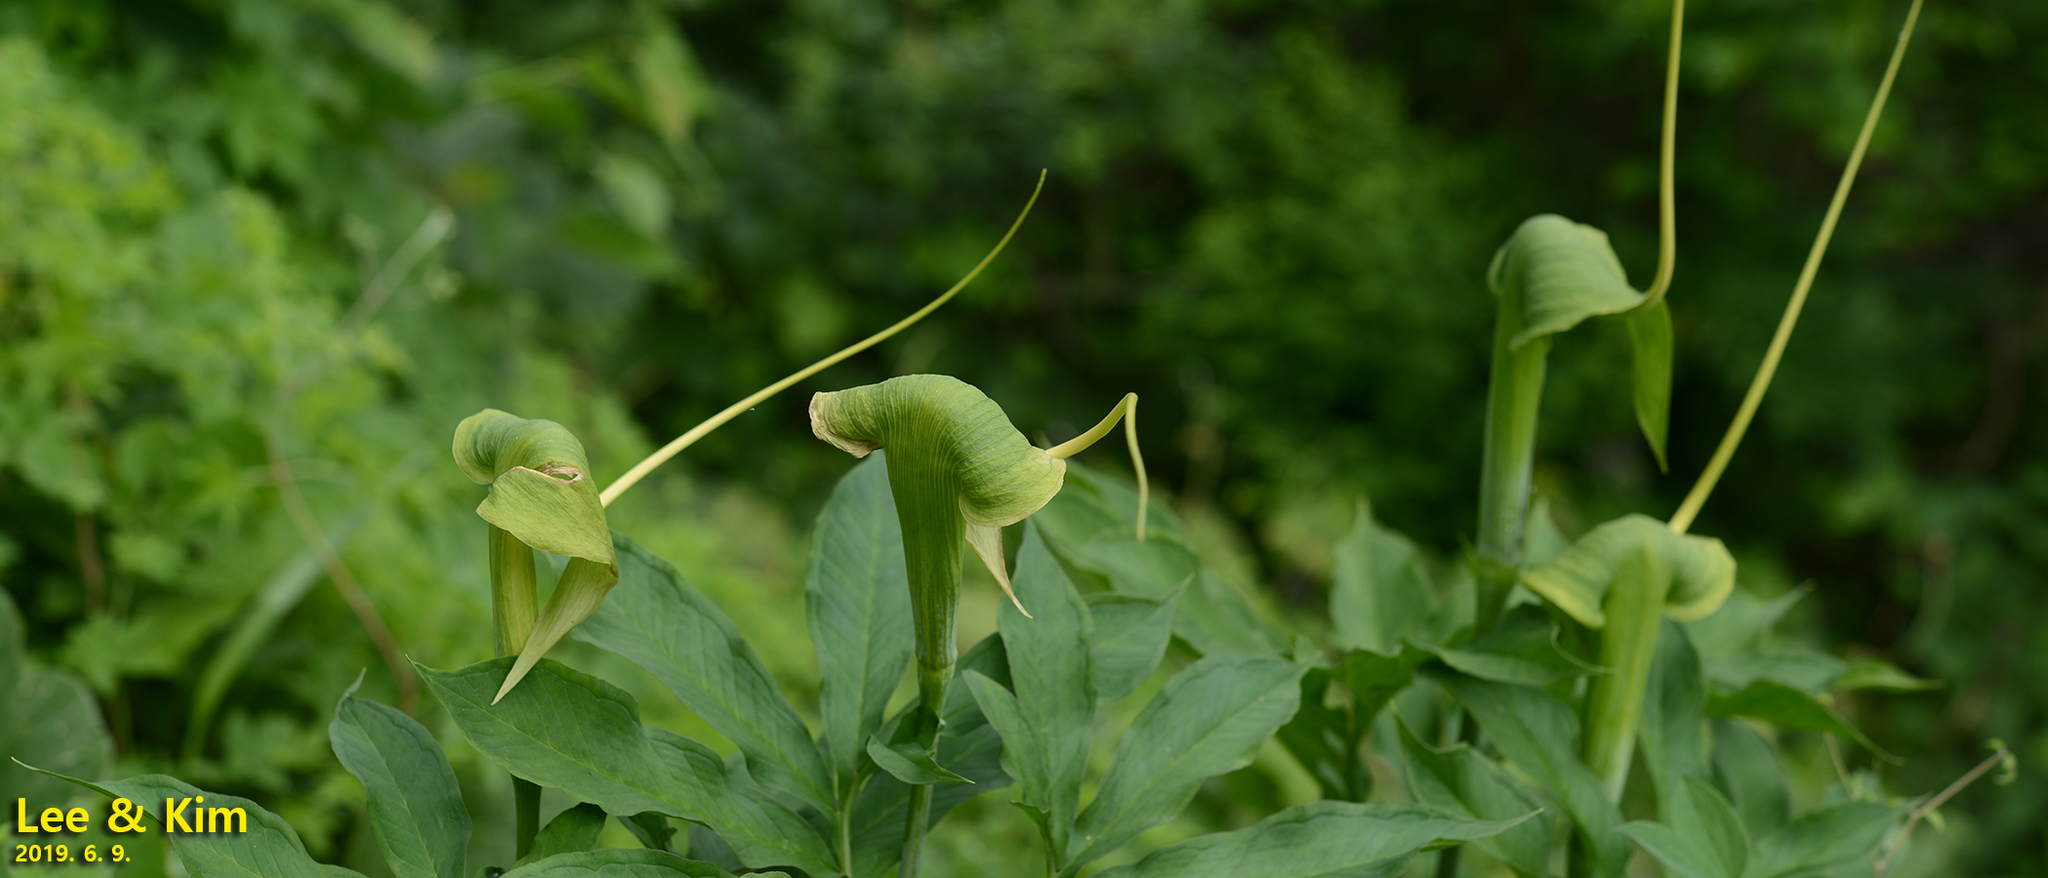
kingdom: Plantae
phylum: Tracheophyta
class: Liliopsida
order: Alismatales
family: Araceae
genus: Arisaema
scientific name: Arisaema heterophyllum
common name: Dancing crane cobra lily
